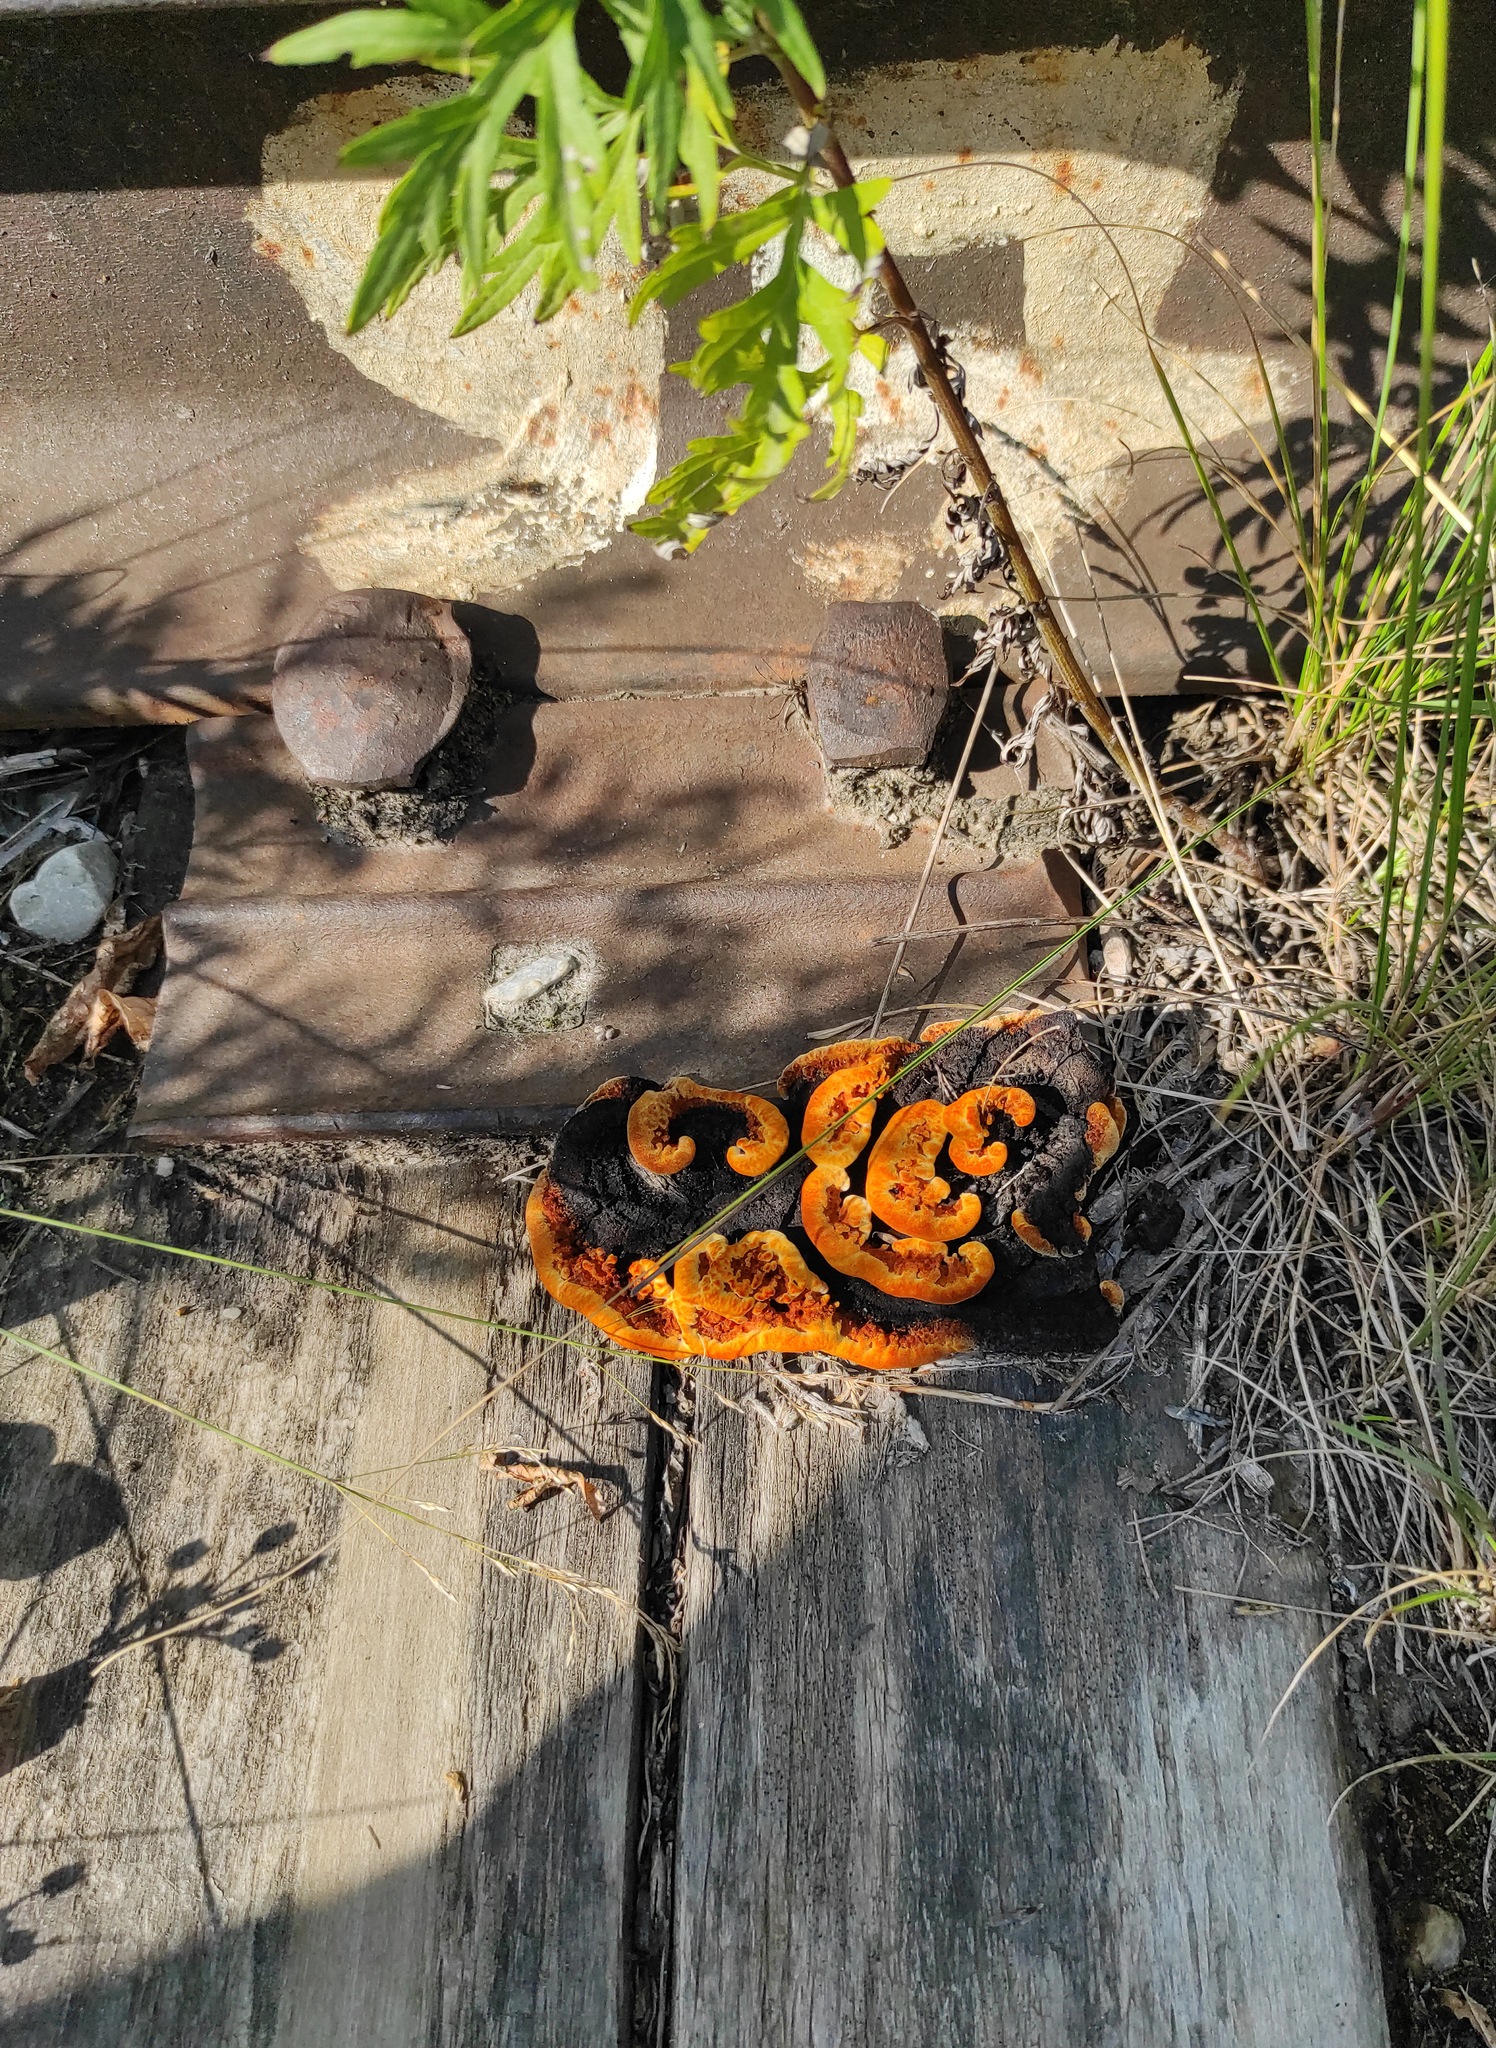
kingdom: Fungi
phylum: Basidiomycota
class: Agaricomycetes
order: Gloeophyllales
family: Gloeophyllaceae
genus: Gloeophyllum
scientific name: Gloeophyllum sepiarium
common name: Conifer mazegill
